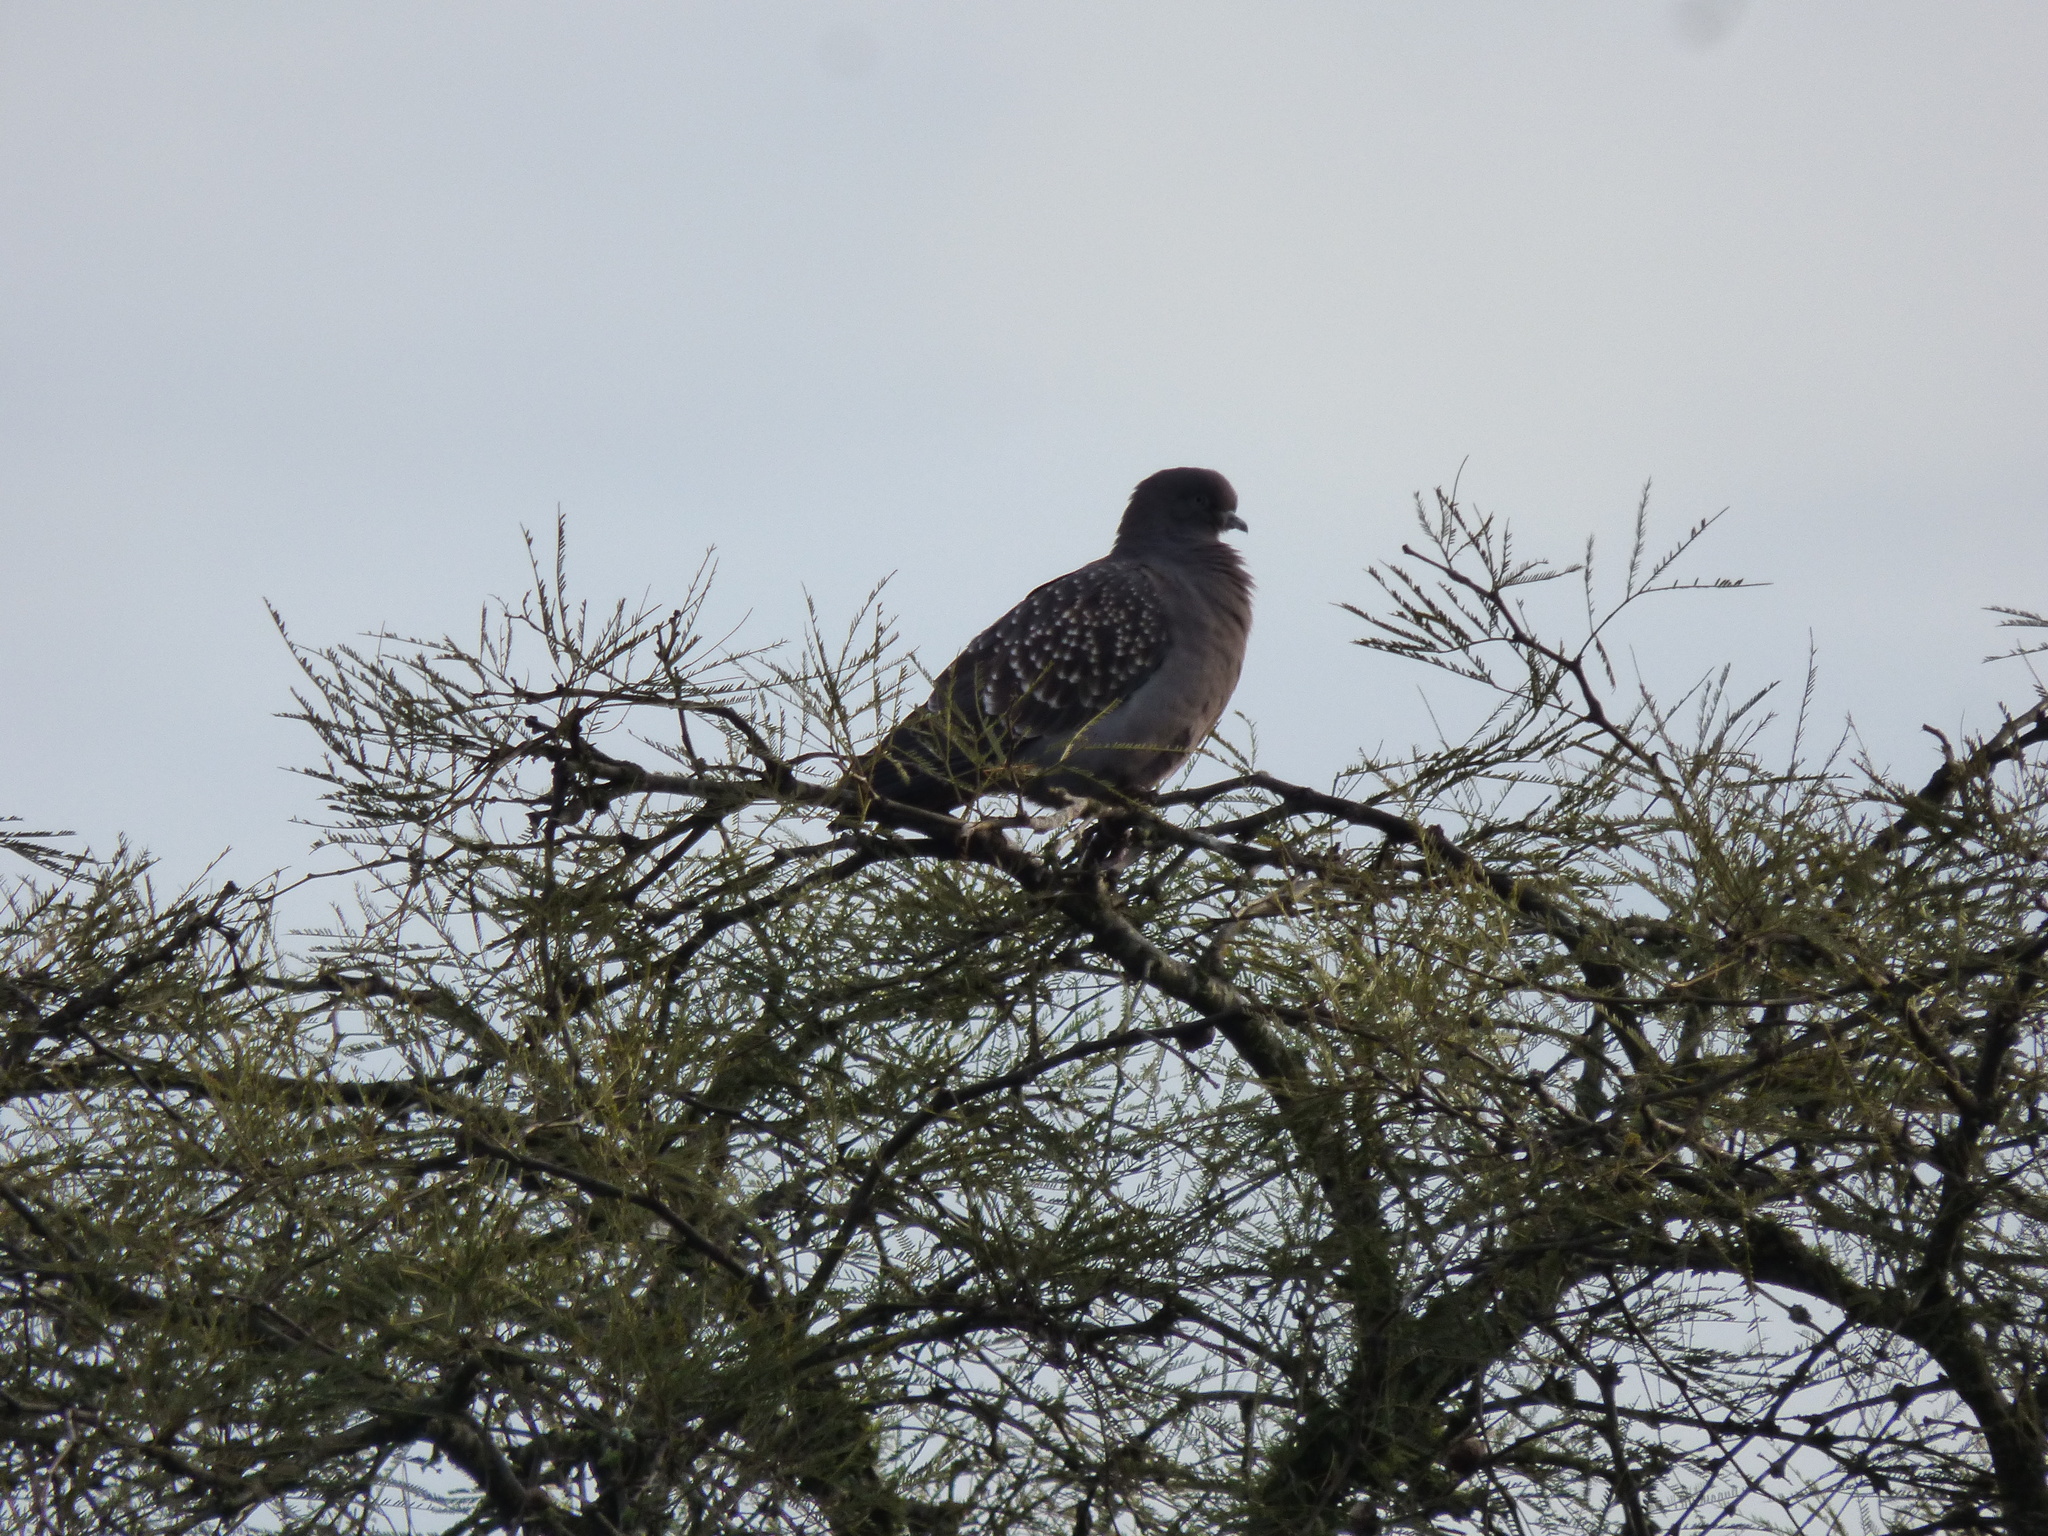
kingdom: Animalia
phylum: Chordata
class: Aves
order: Columbiformes
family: Columbidae
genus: Patagioenas
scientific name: Patagioenas maculosa
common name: Spot-winged pigeon
